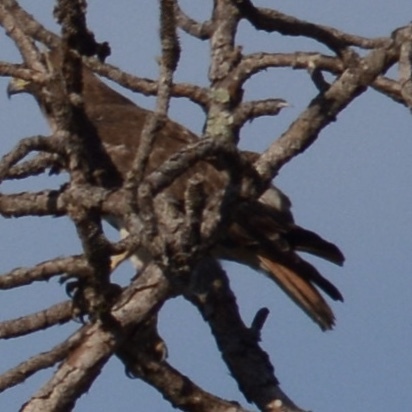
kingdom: Animalia
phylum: Chordata
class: Aves
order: Accipitriformes
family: Accipitridae
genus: Buteo
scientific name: Buteo jamaicensis
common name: Red-tailed hawk
